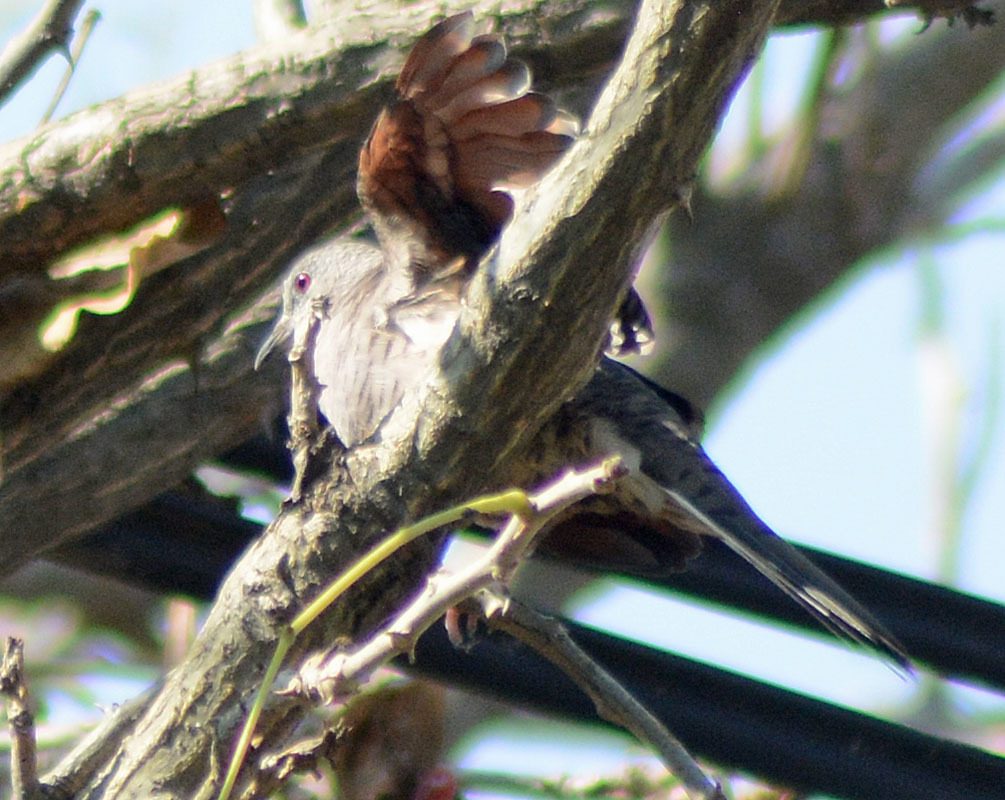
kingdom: Animalia
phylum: Chordata
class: Aves
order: Columbiformes
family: Columbidae
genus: Columbina
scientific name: Columbina inca
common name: Inca dove
